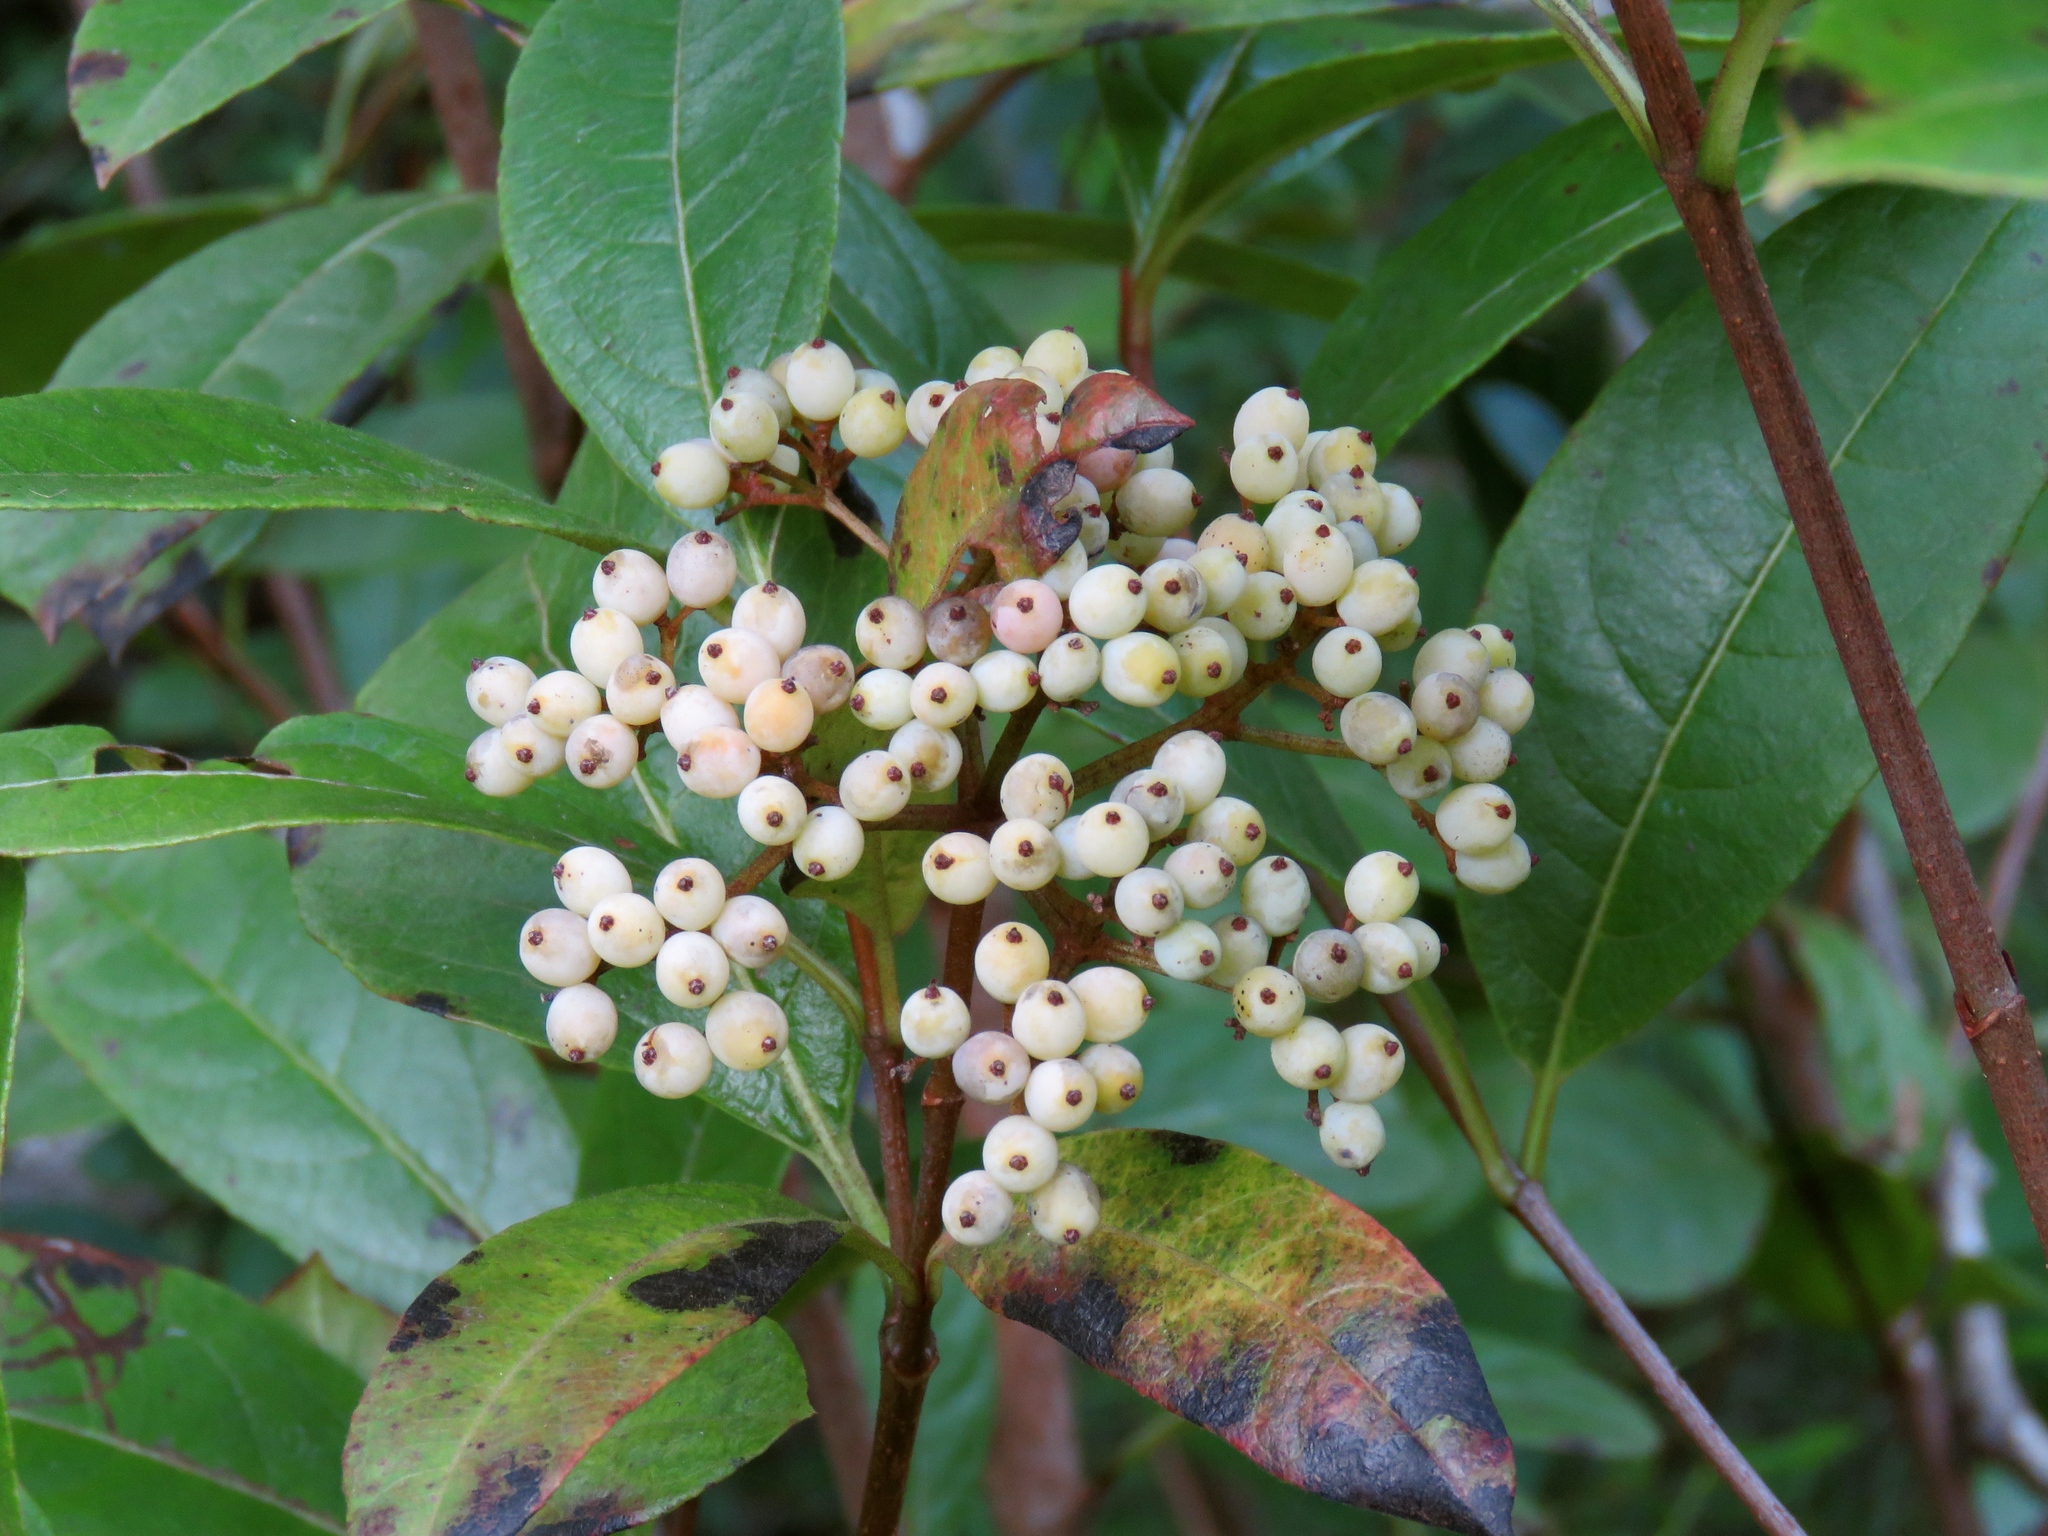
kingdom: Plantae
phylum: Tracheophyta
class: Magnoliopsida
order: Dipsacales
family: Viburnaceae
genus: Viburnum
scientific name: Viburnum nudum
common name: Possum haw
